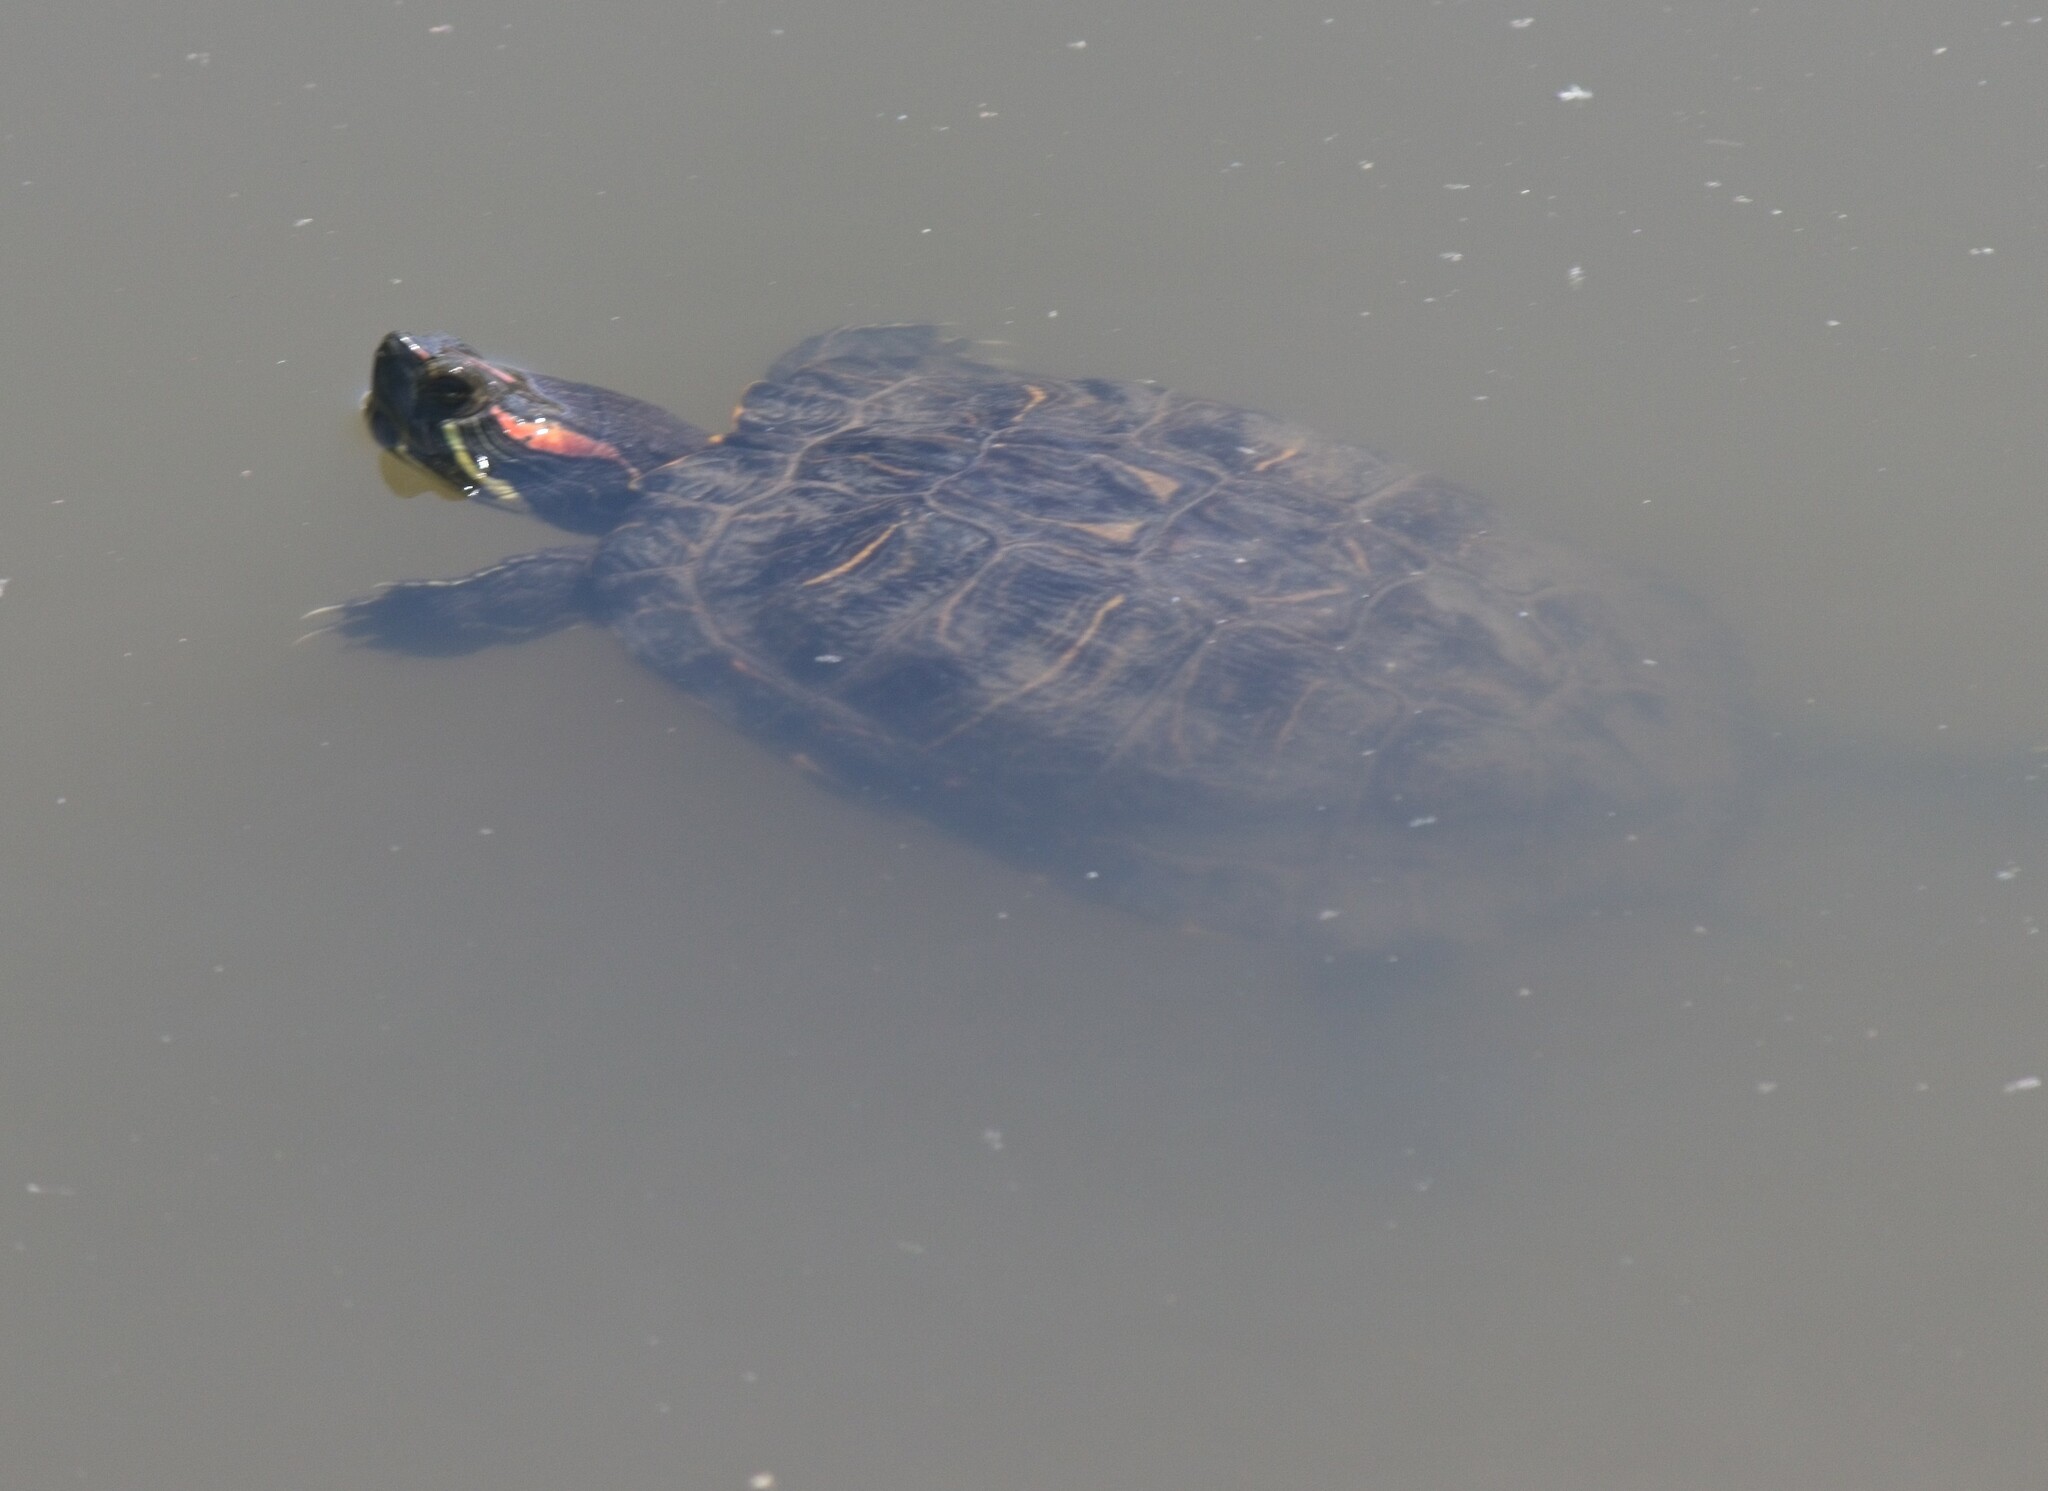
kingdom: Animalia
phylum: Chordata
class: Testudines
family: Emydidae
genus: Trachemys
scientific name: Trachemys scripta
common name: Slider
